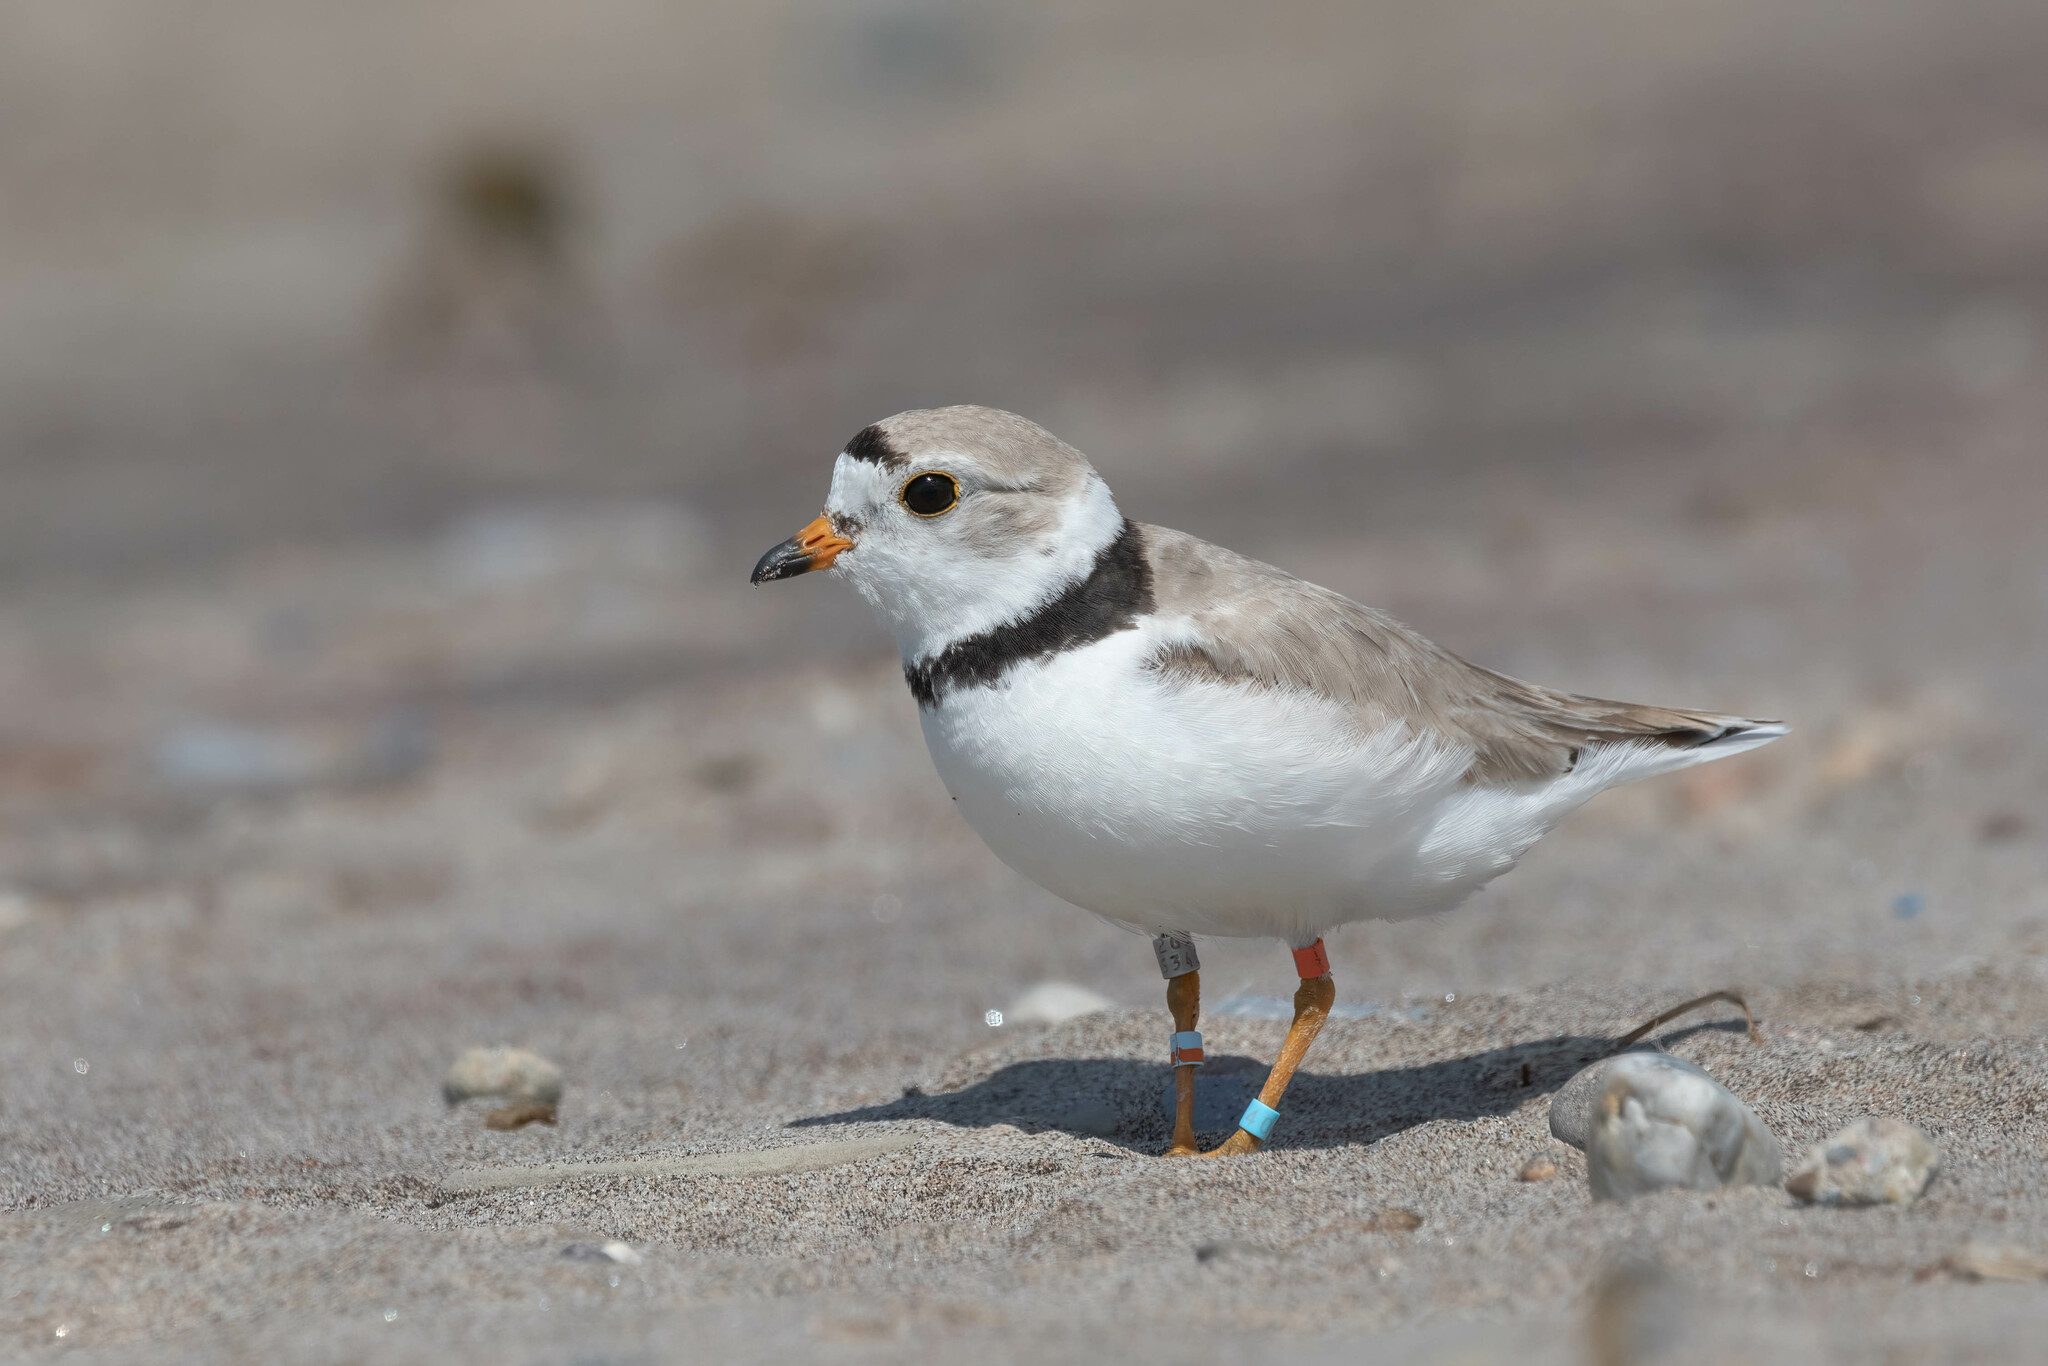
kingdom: Animalia
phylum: Chordata
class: Aves
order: Charadriiformes
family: Charadriidae
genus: Charadrius
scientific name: Charadrius melodus
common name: Piping plover
